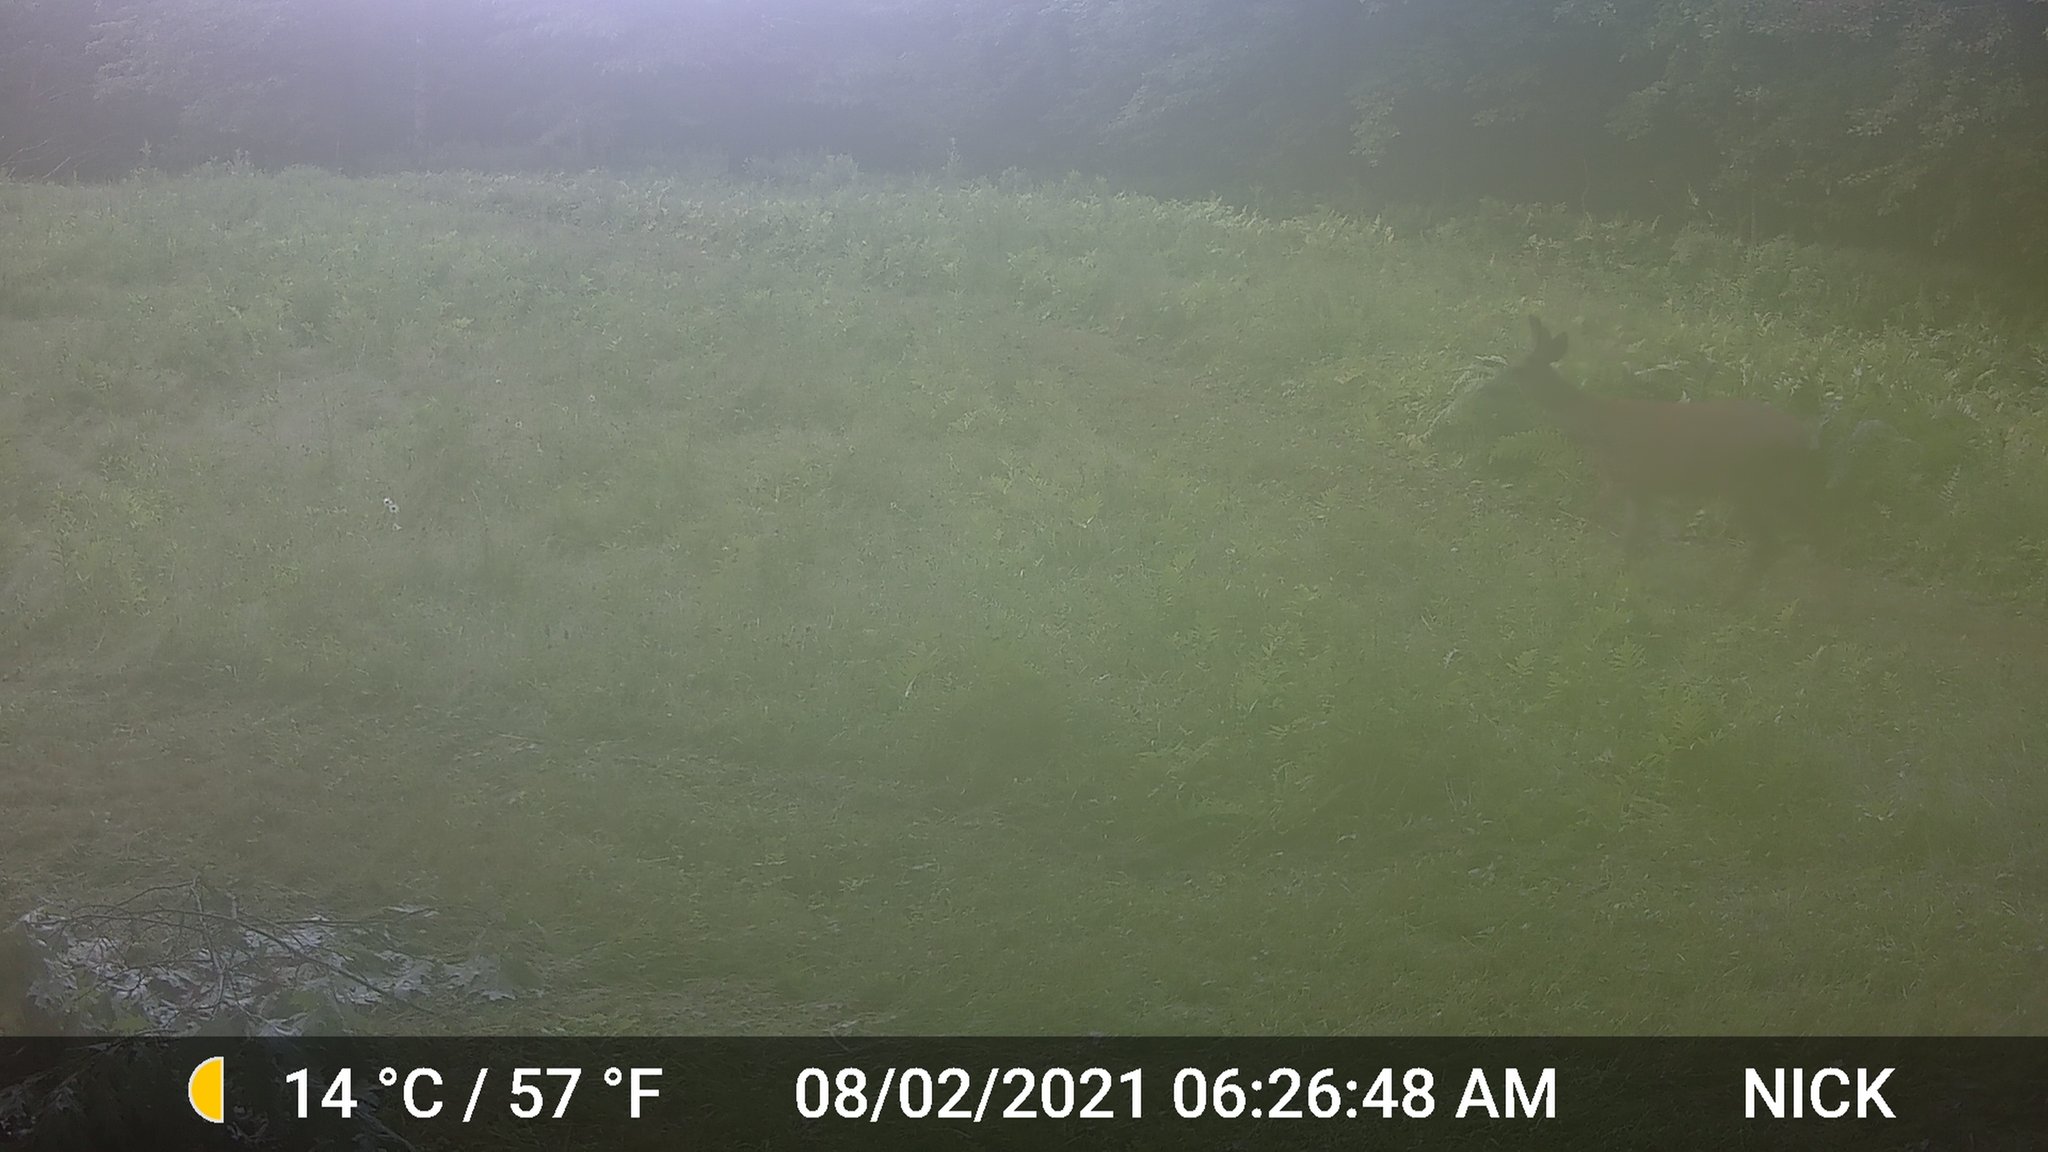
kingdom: Animalia
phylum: Chordata
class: Mammalia
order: Artiodactyla
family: Cervidae
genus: Odocoileus
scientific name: Odocoileus virginianus
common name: White-tailed deer
